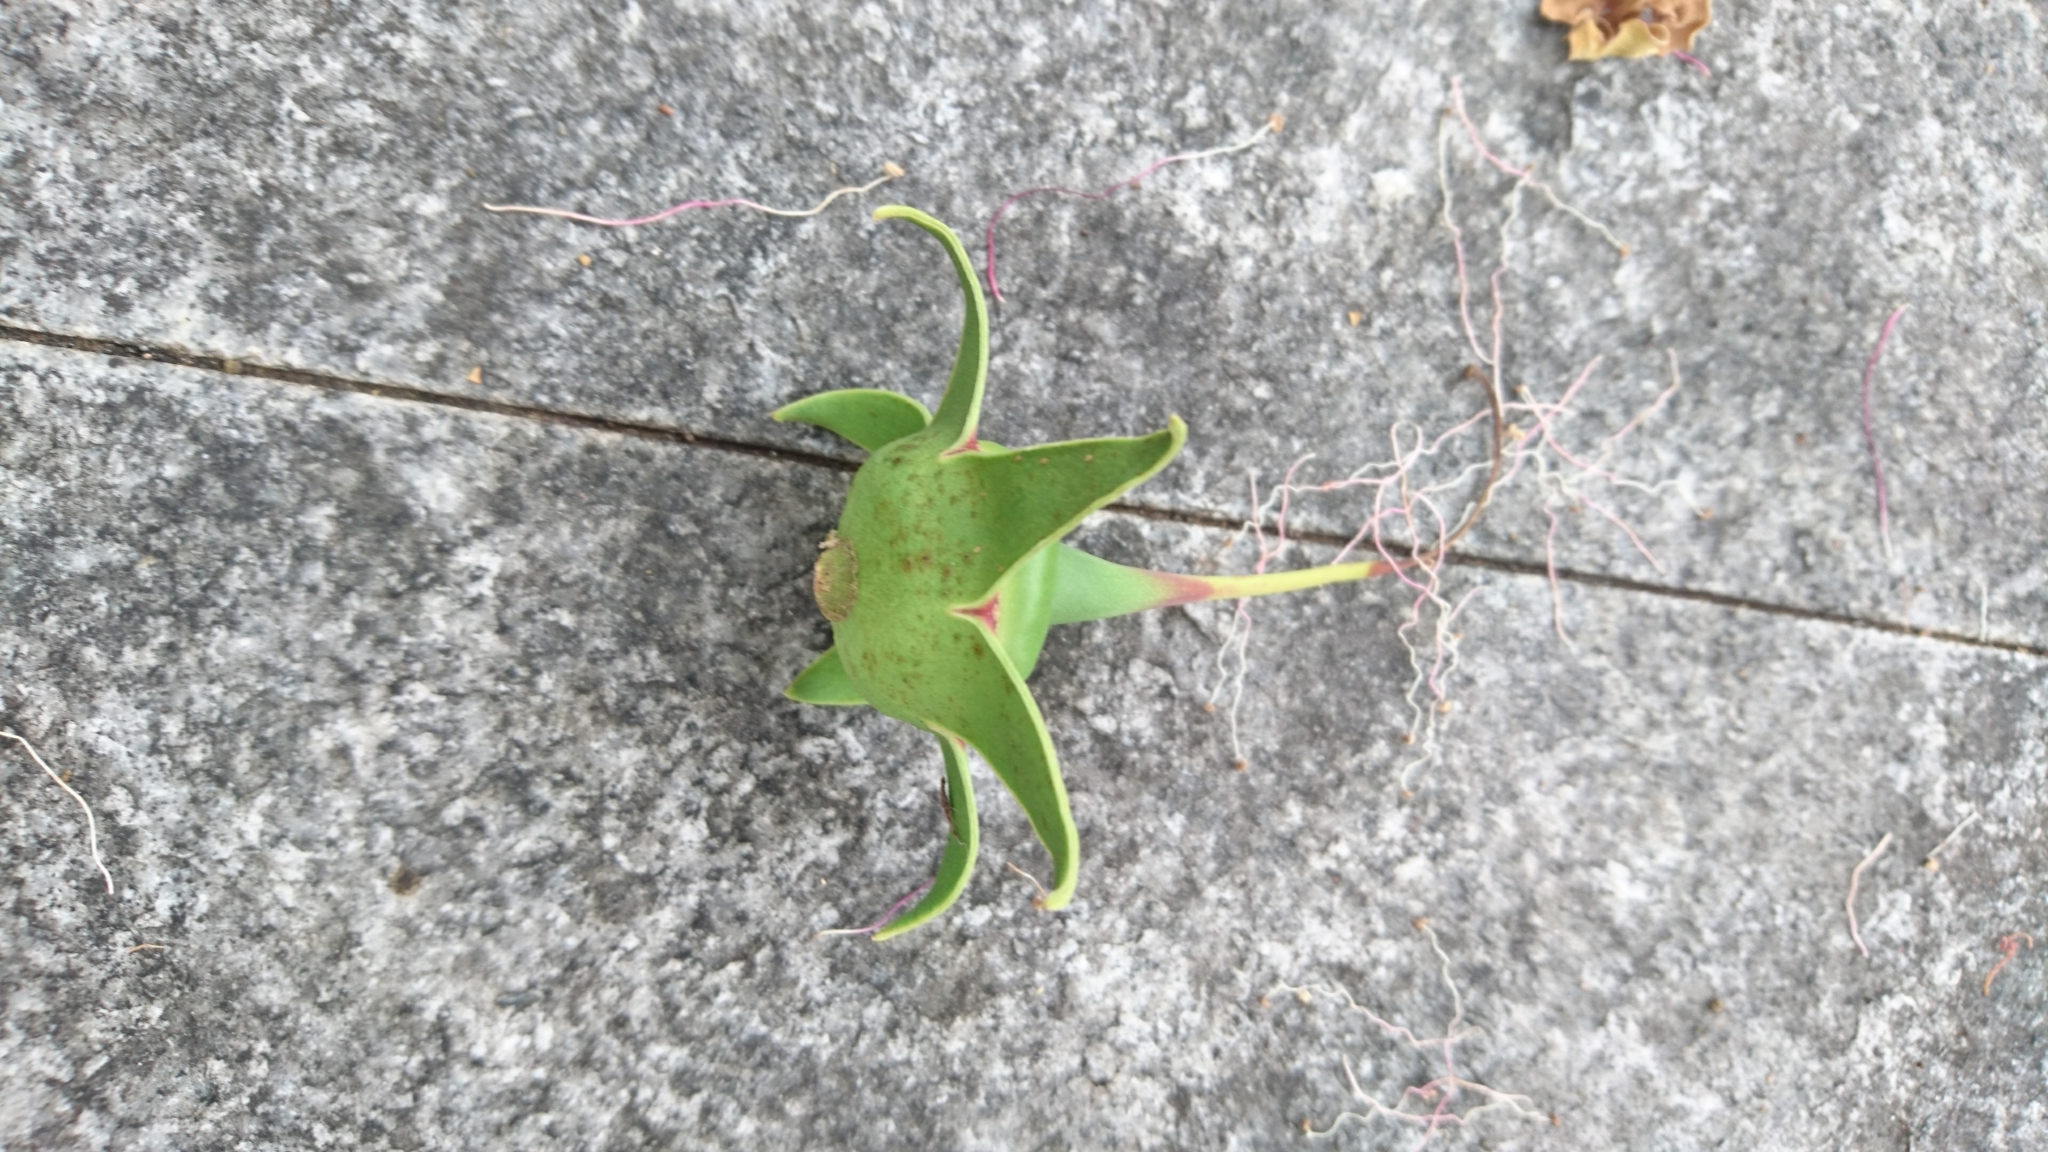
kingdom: Plantae
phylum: Tracheophyta
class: Magnoliopsida
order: Myrtales
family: Lythraceae
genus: Sonneratia
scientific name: Sonneratia
